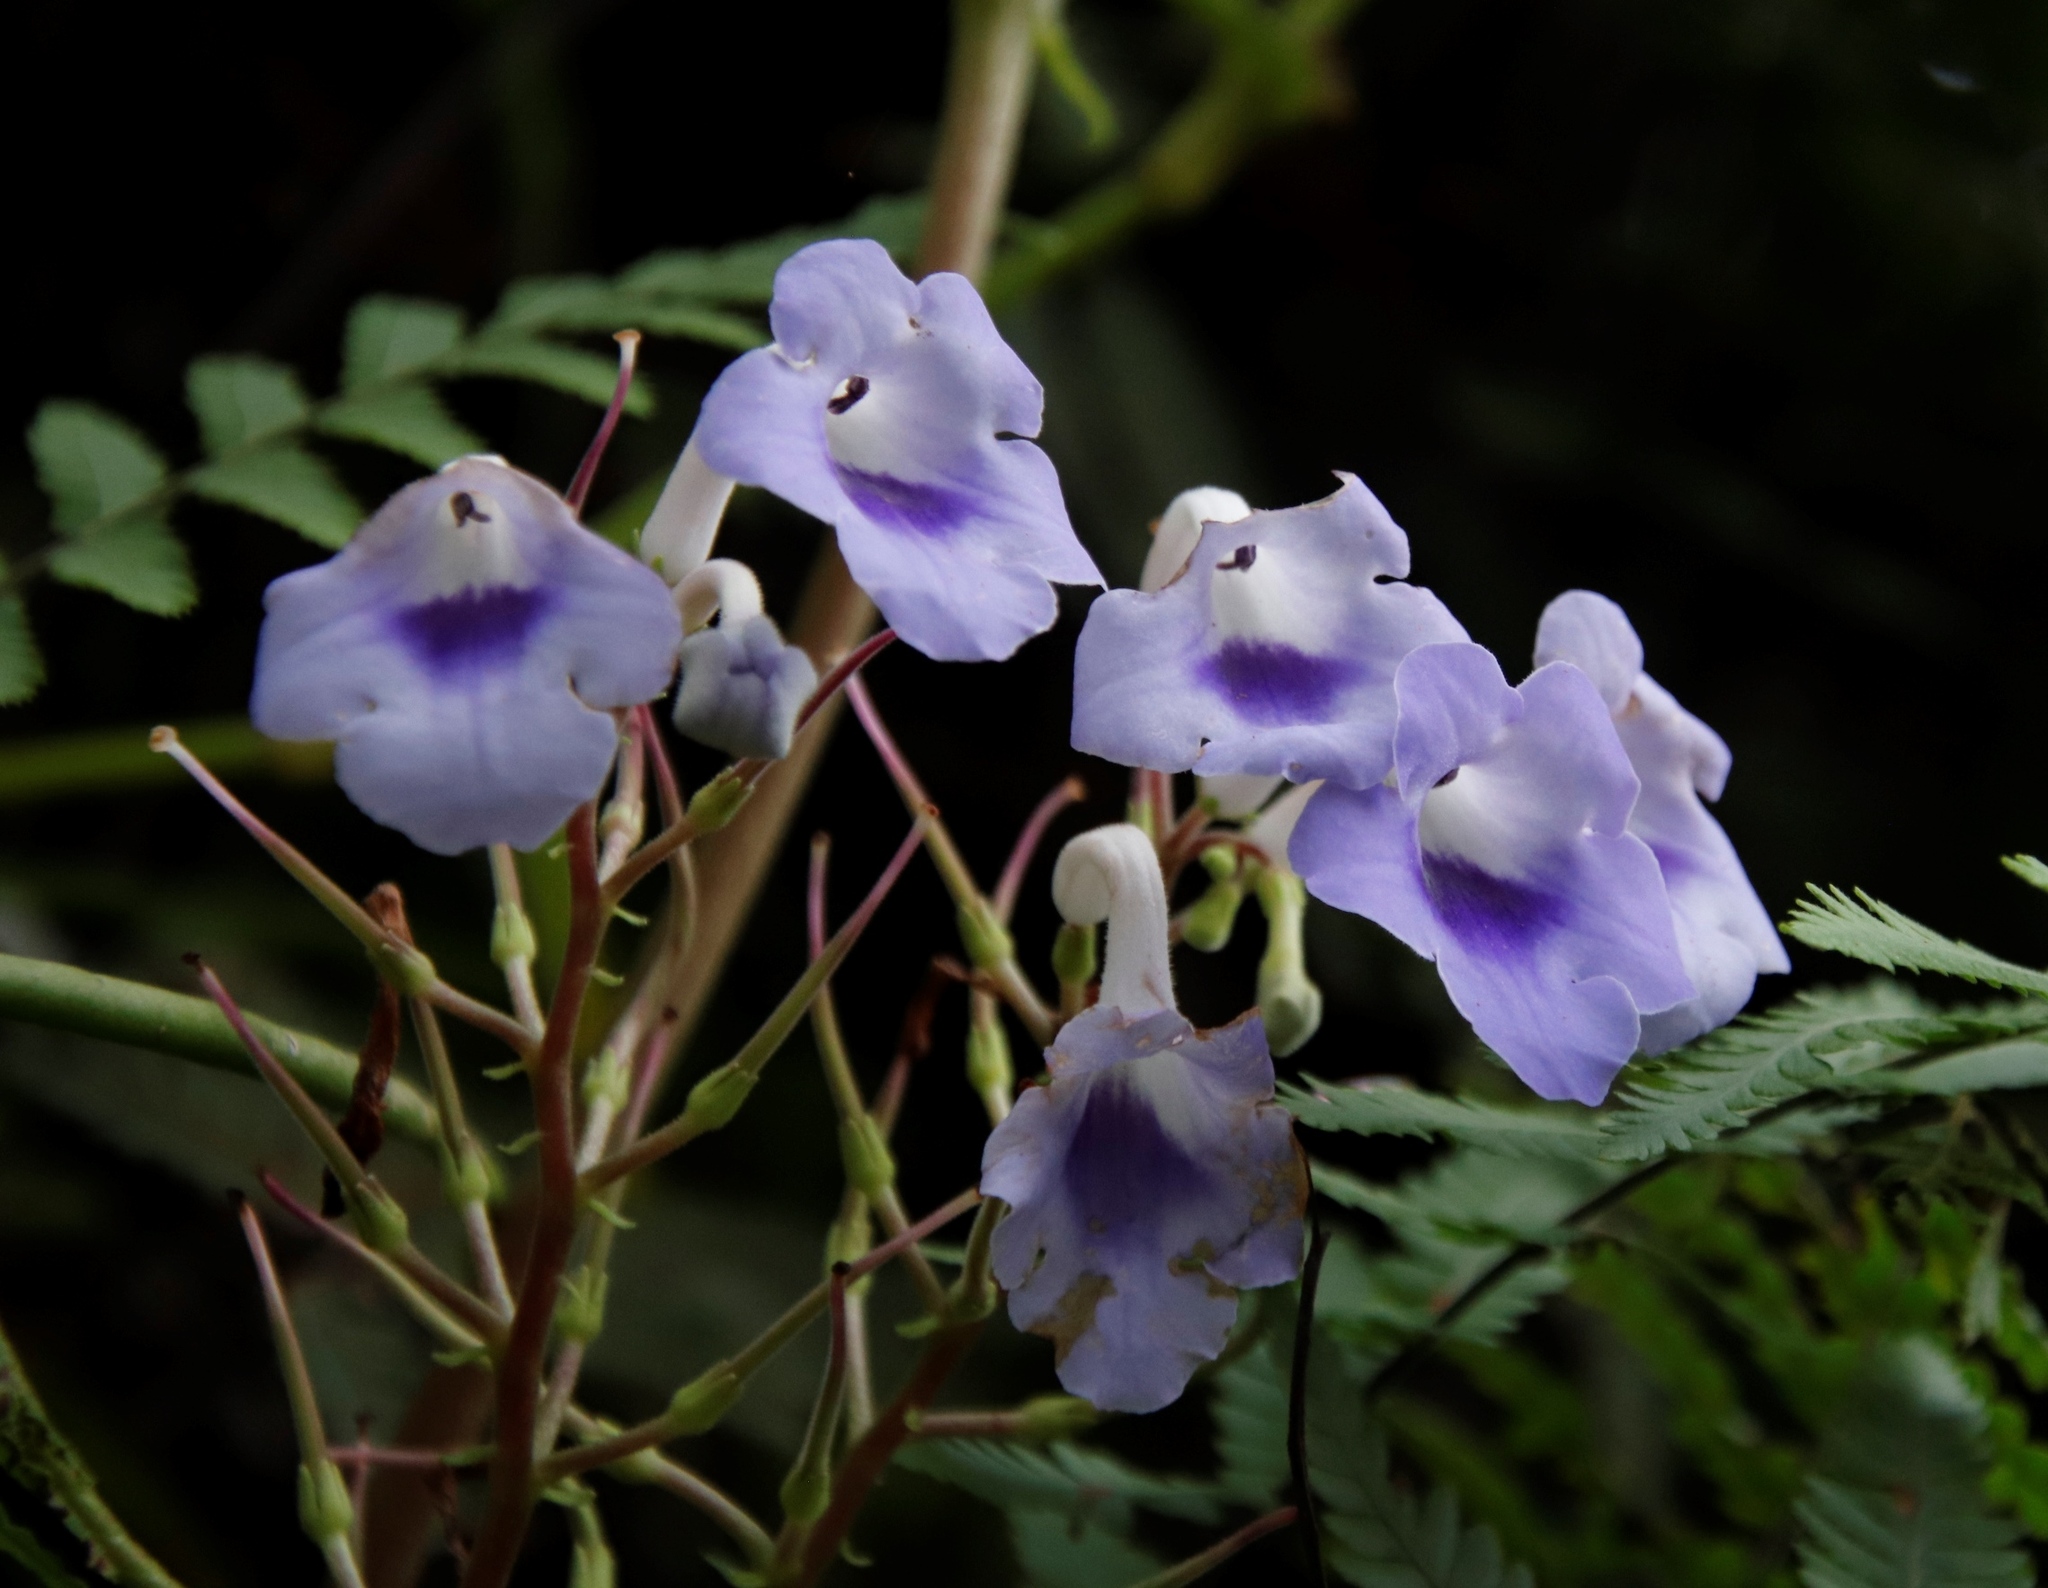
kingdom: Plantae
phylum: Tracheophyta
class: Magnoliopsida
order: Lamiales
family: Gesneriaceae
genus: Streptocarpus
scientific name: Streptocarpus eylesii
